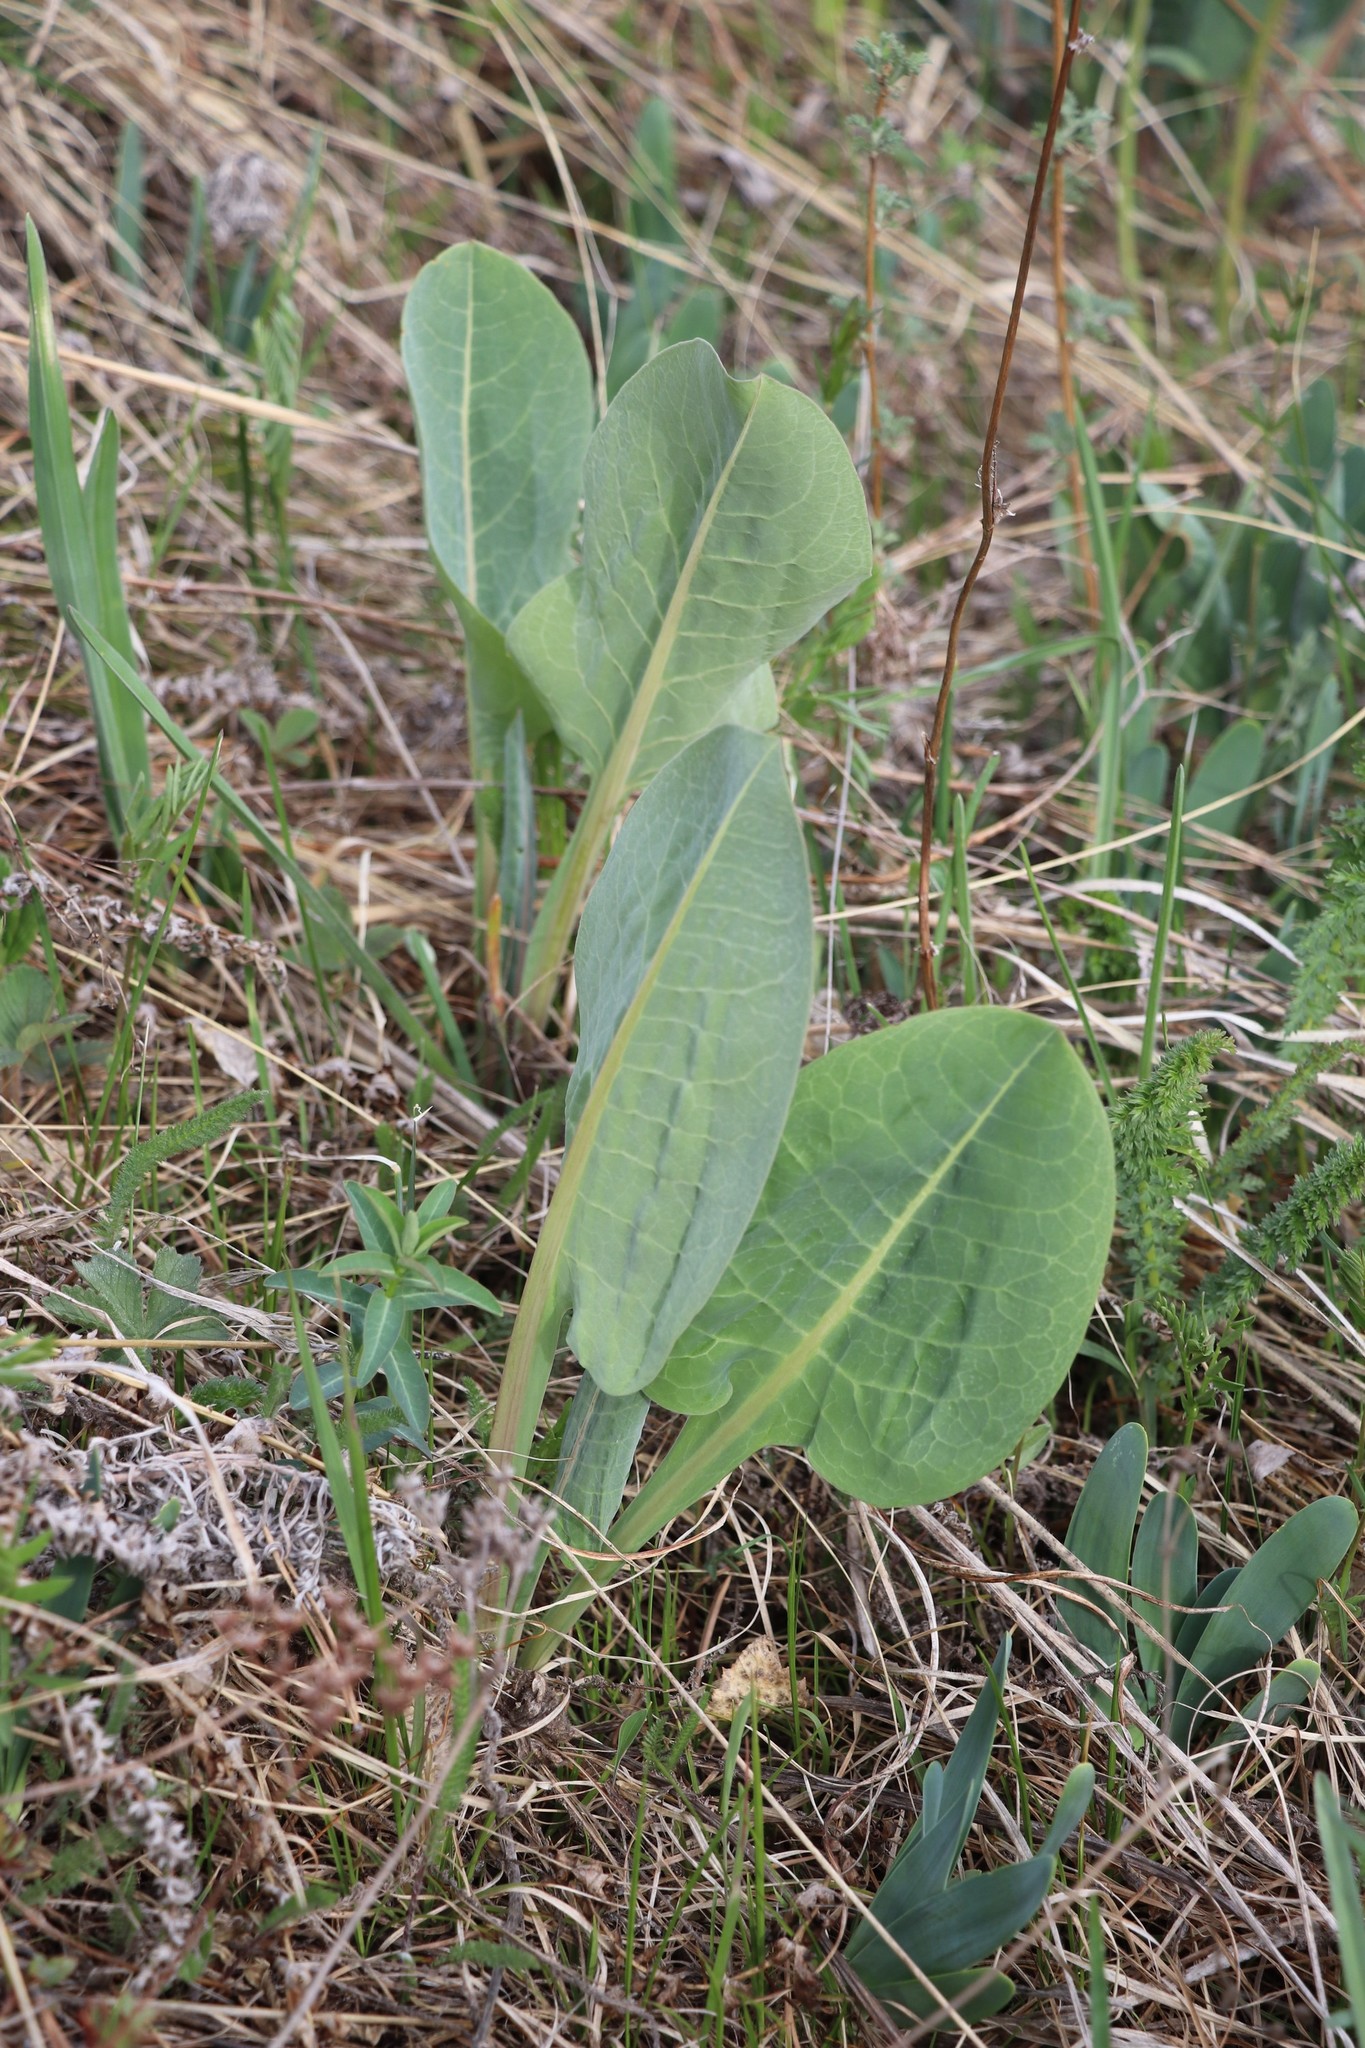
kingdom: Plantae
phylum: Tracheophyta
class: Magnoliopsida
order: Asterales
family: Asteraceae
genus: Ligularia
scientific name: Ligularia glauca
